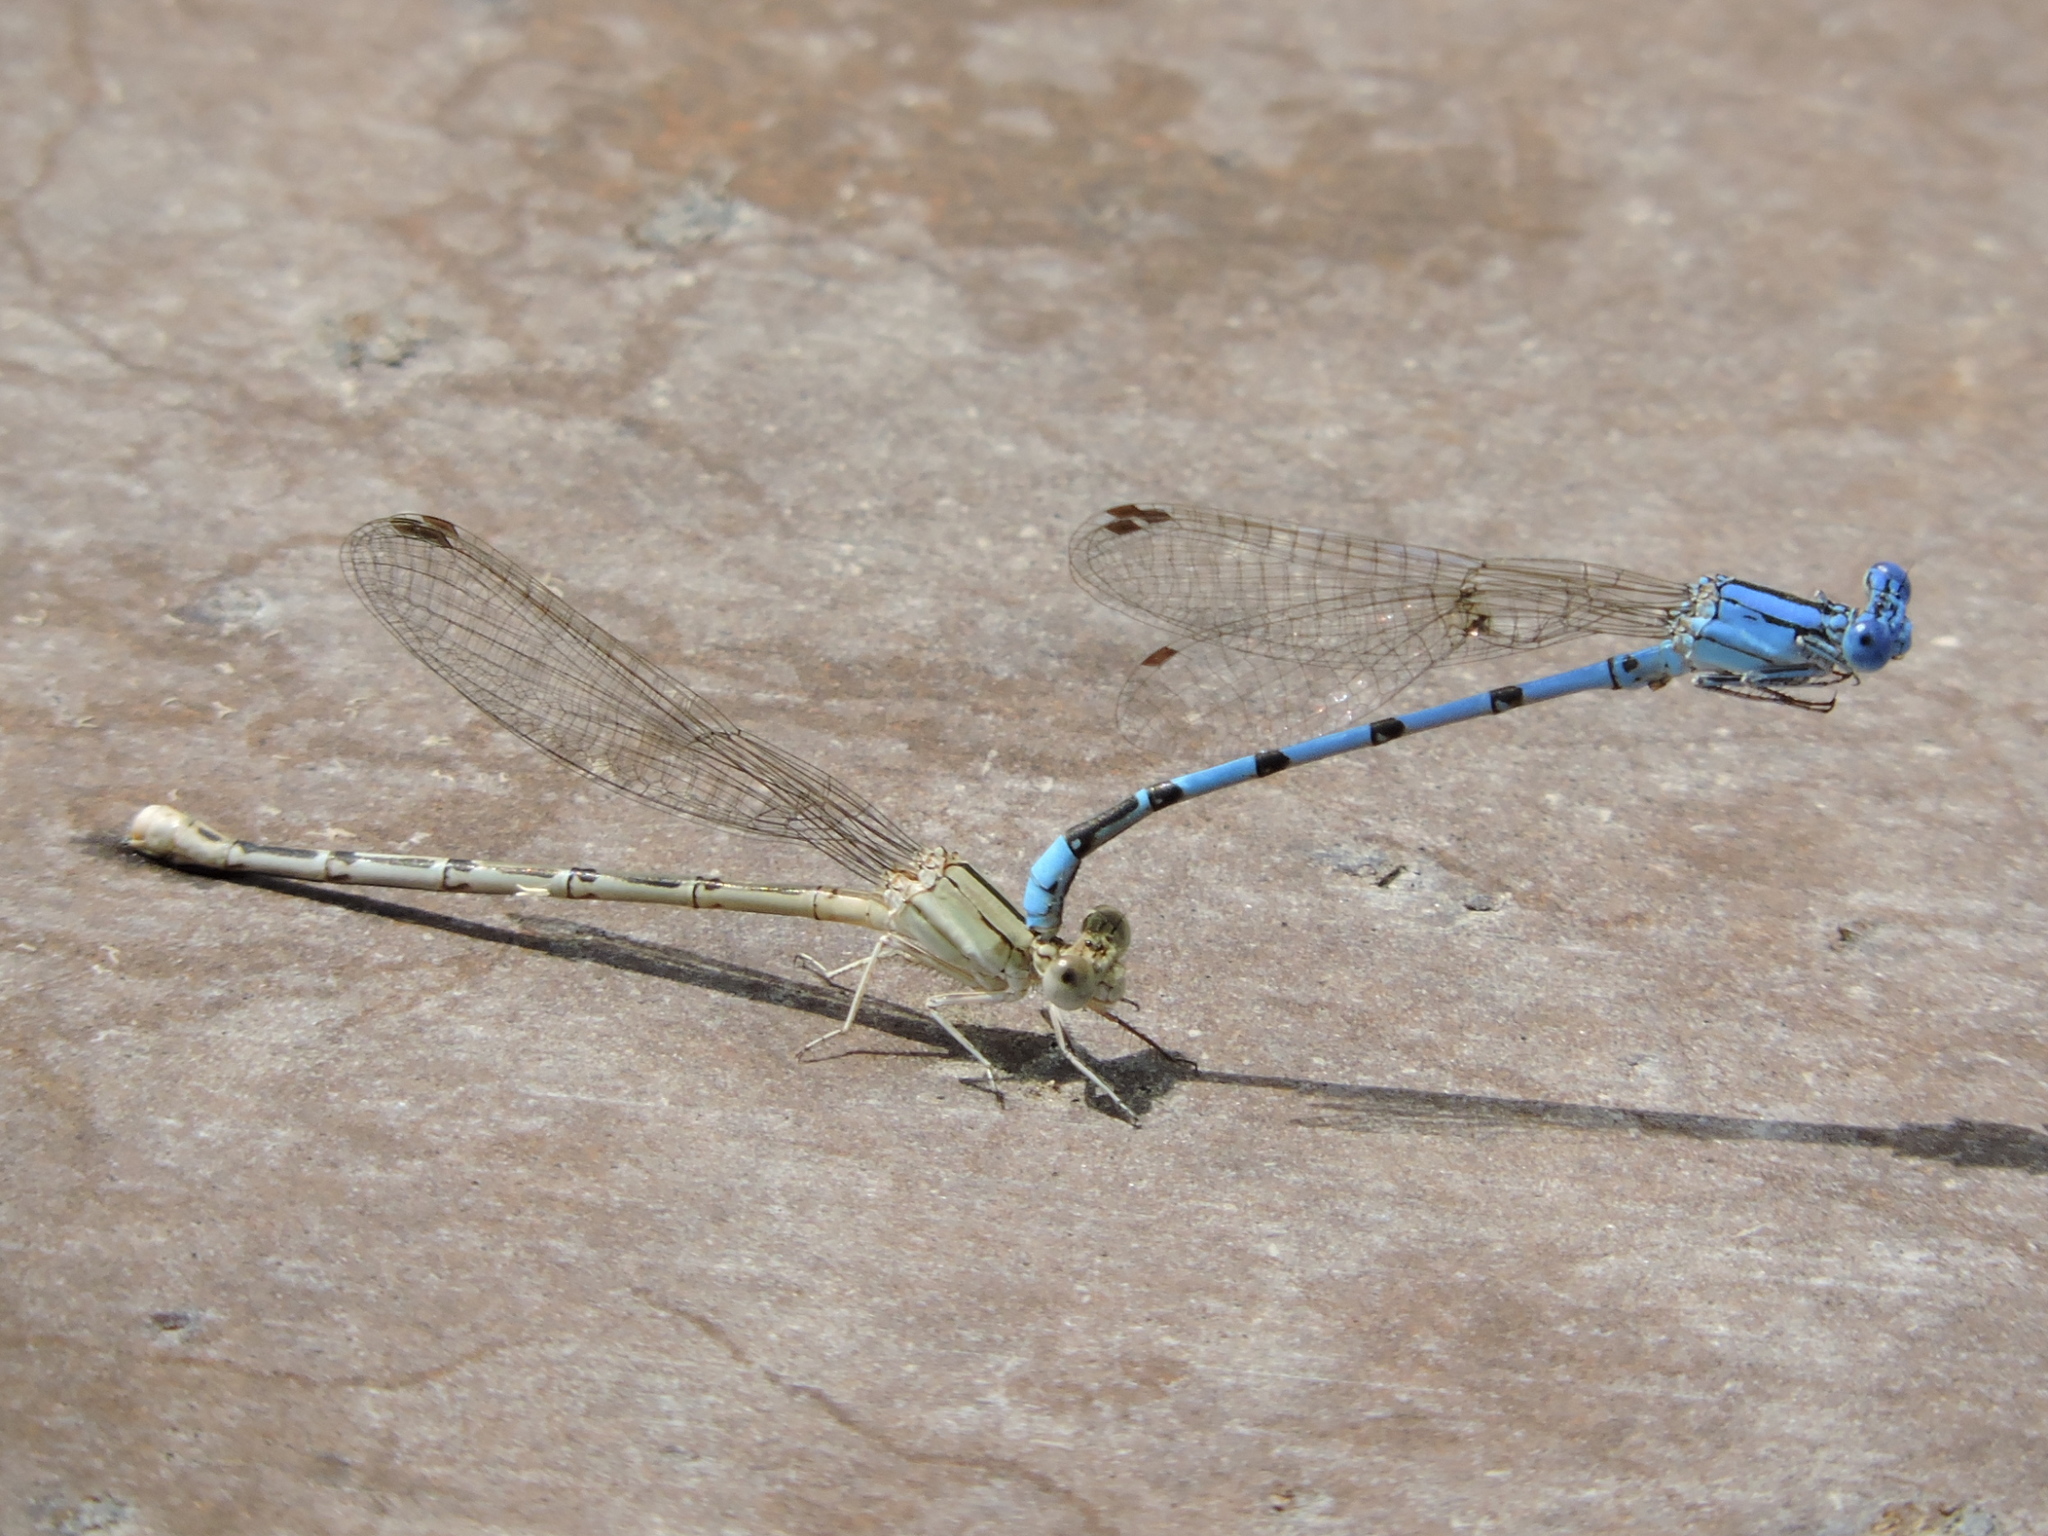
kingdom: Animalia
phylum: Arthropoda
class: Insecta
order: Odonata
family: Coenagrionidae
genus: Argia
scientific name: Argia nahuana
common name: Aztec dancer
